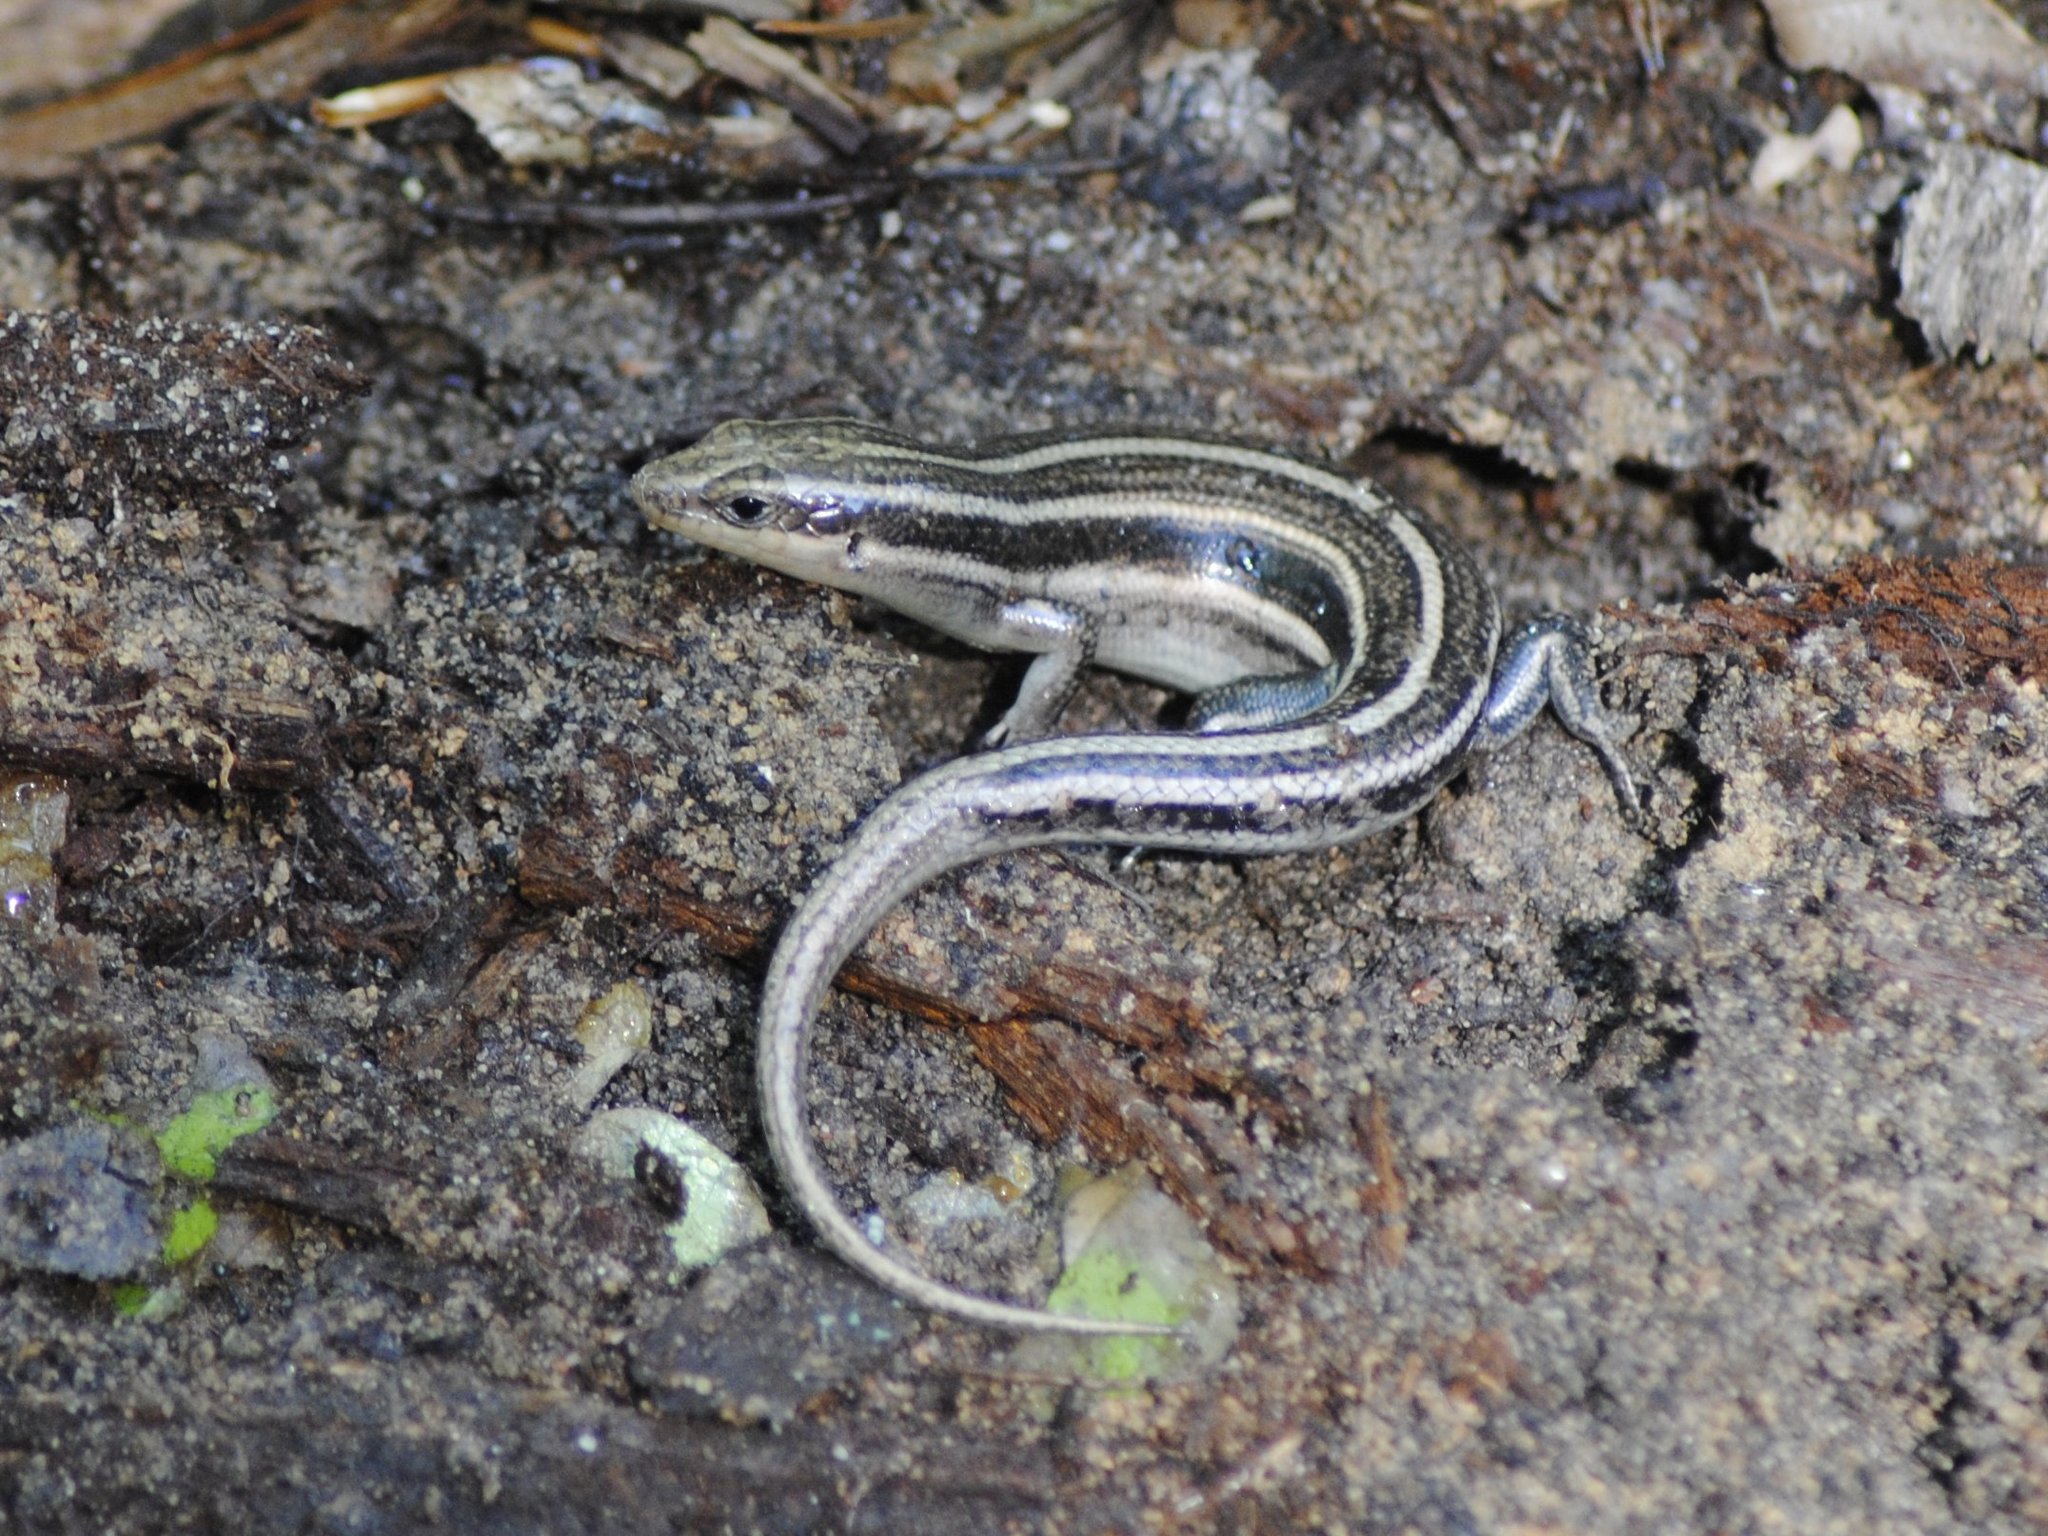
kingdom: Animalia
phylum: Chordata
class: Squamata
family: Scincidae
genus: Plestiodon
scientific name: Plestiodon fasciatus
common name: Five-lined skink
